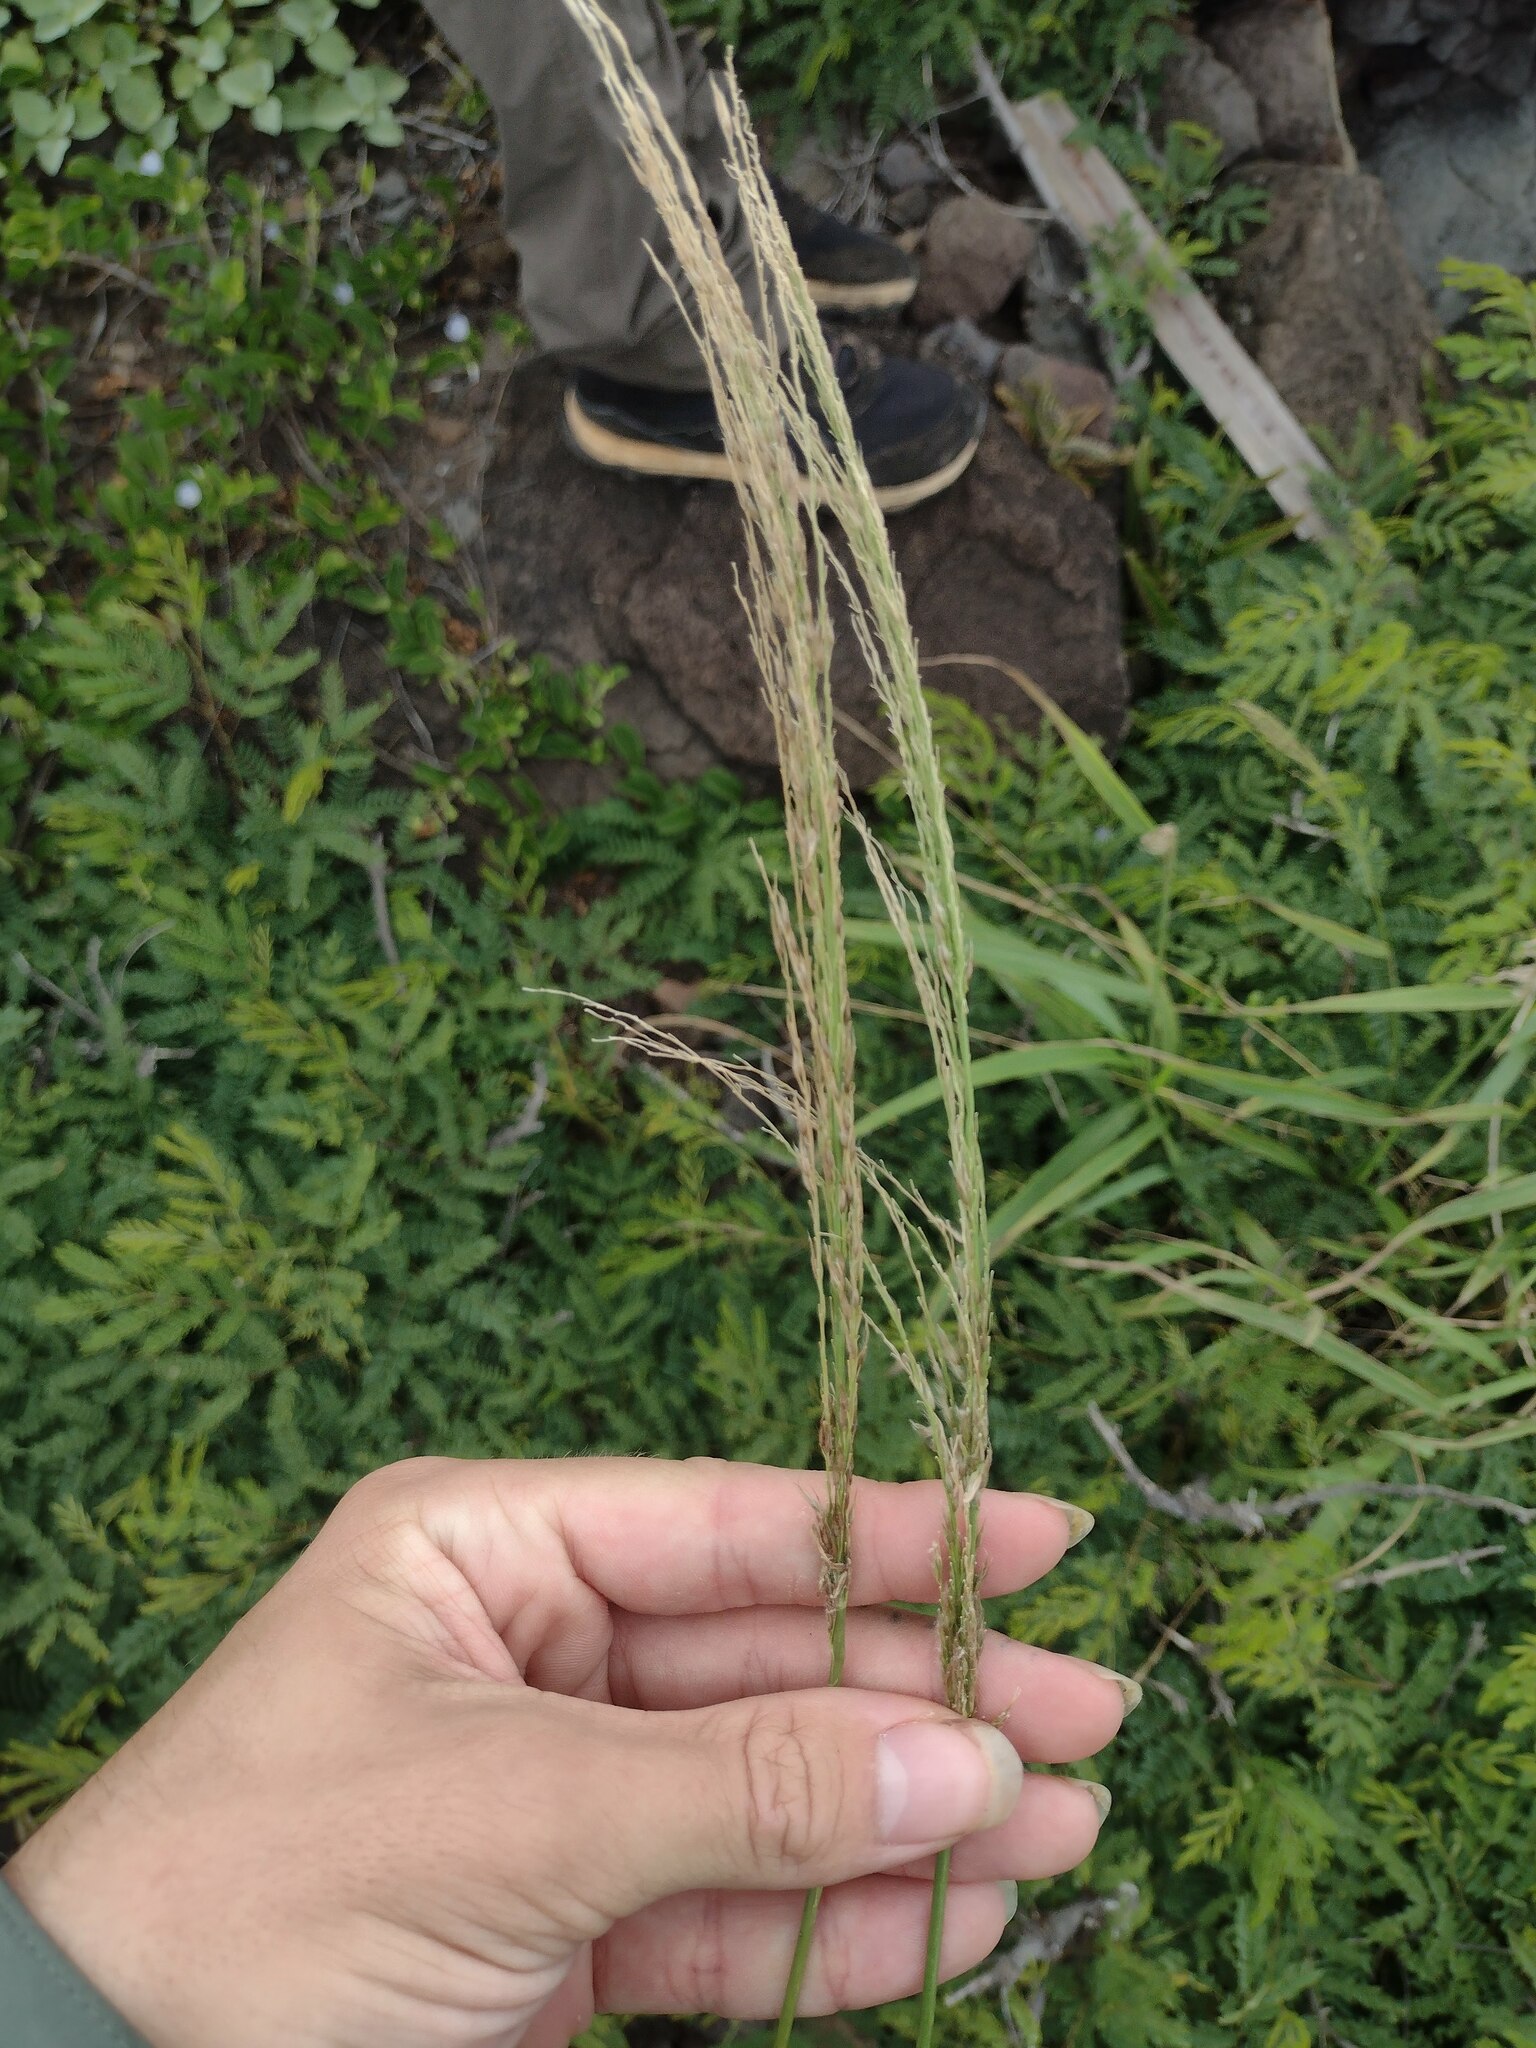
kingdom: Plantae
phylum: Tracheophyta
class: Liliopsida
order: Poales
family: Poaceae
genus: Digitaria
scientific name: Digitaria insularis
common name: Sourgrass
